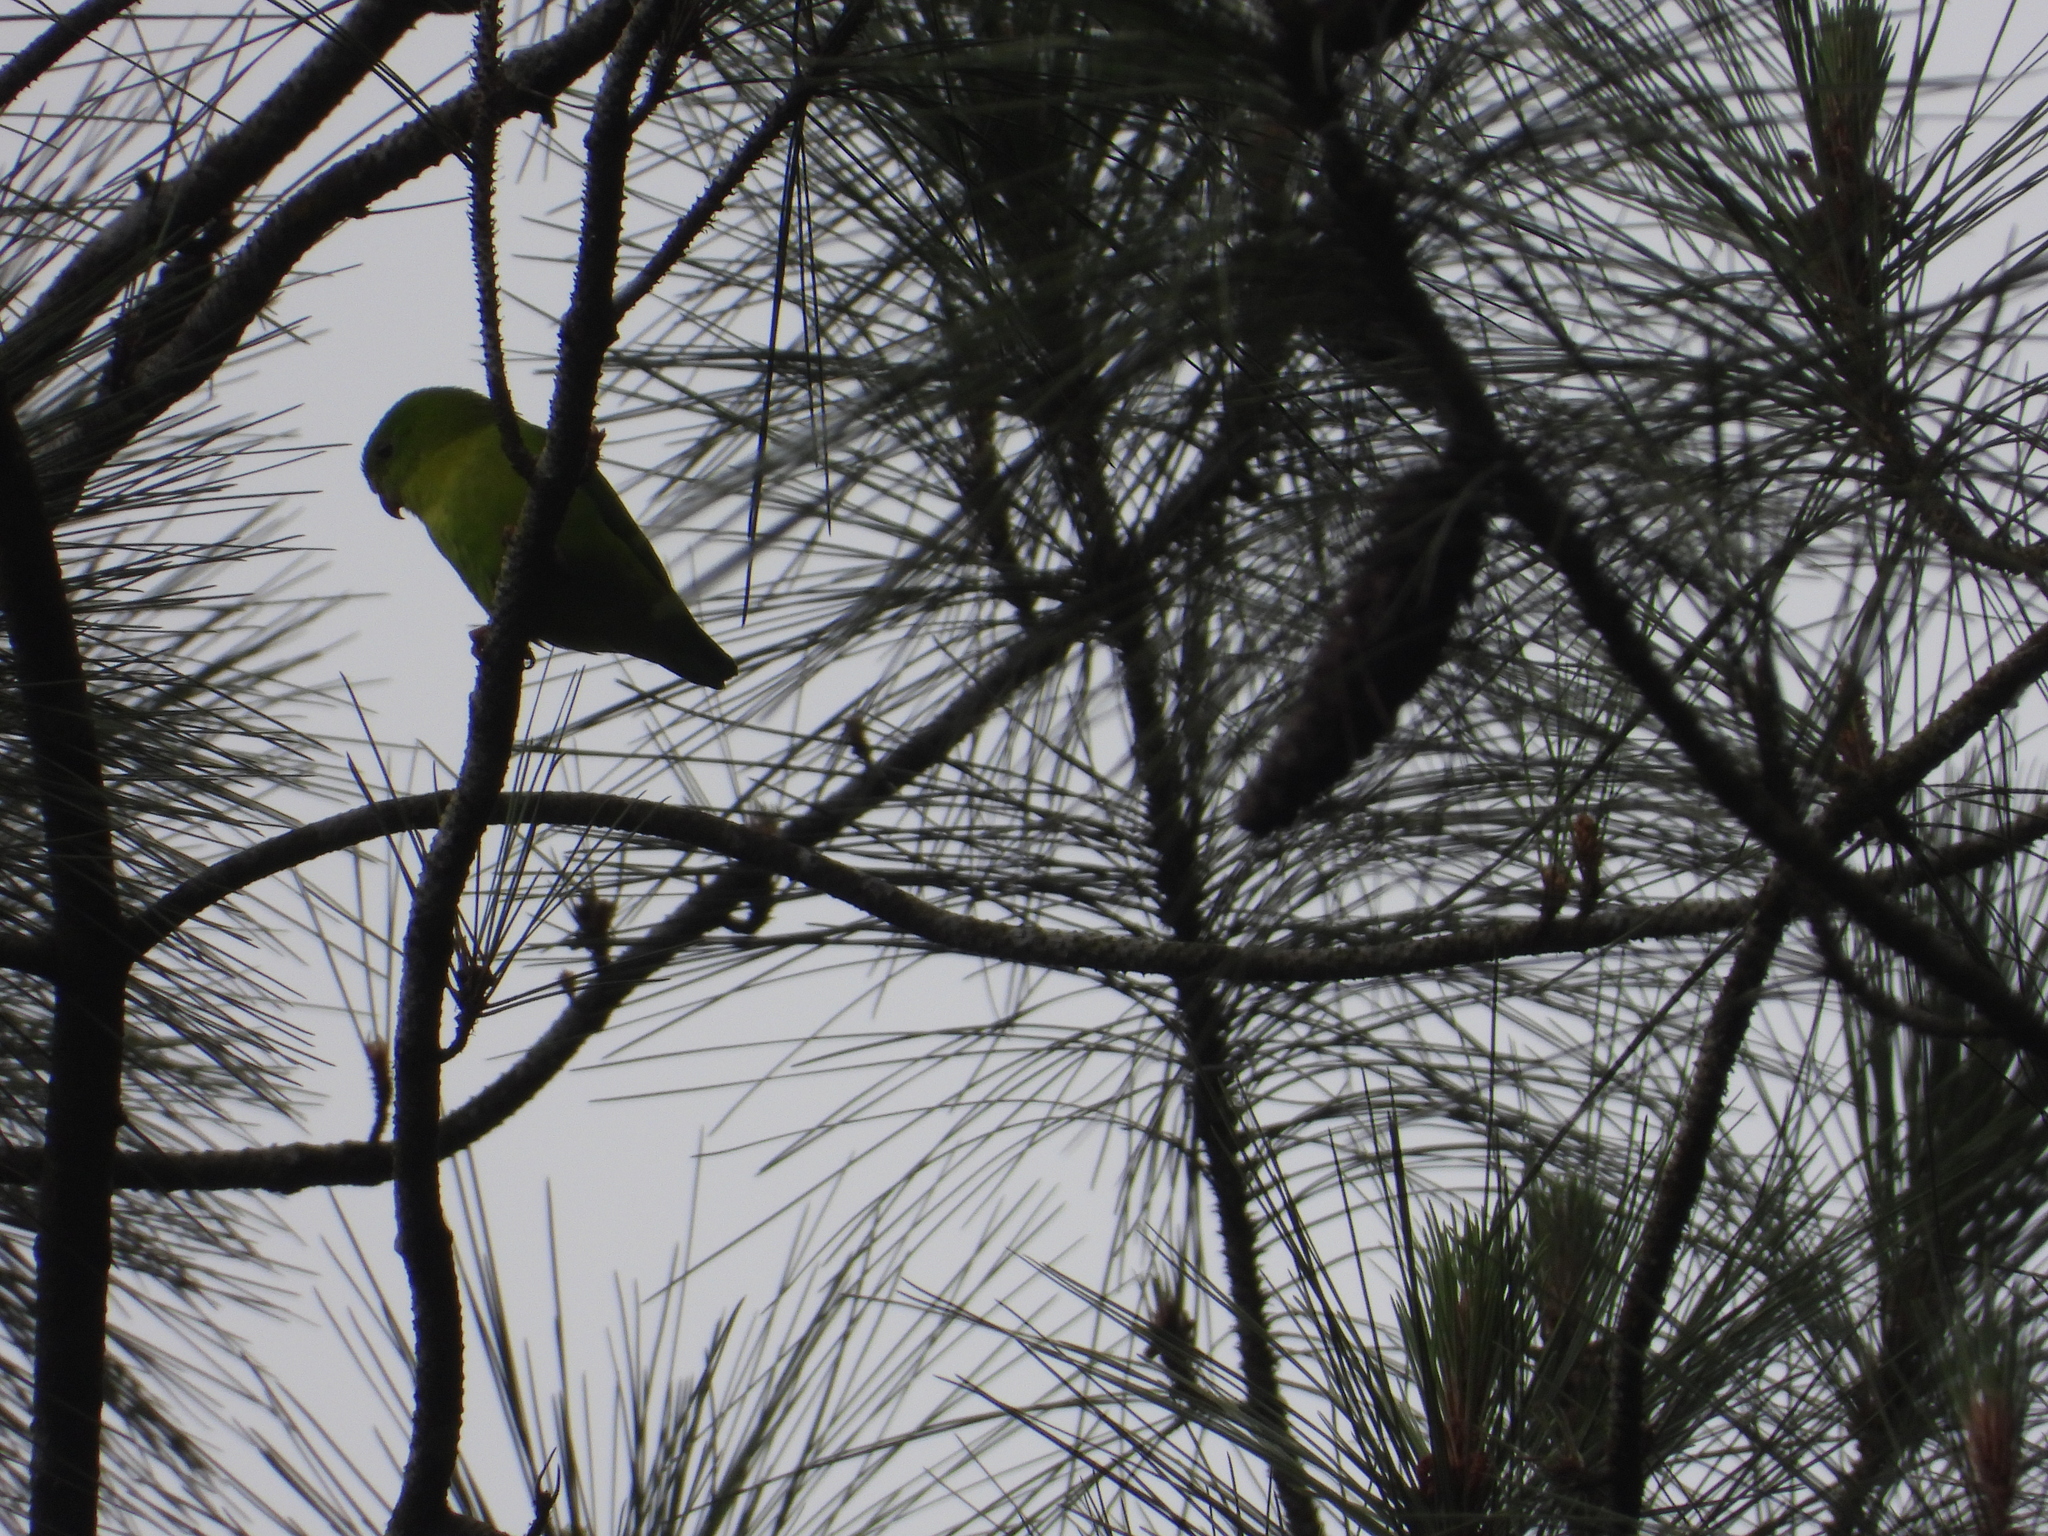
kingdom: Animalia
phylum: Chordata
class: Aves
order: Psittaciformes
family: Psittacidae
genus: Loriculus
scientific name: Loriculus pusillus
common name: Yellow-throated hanging parrot
